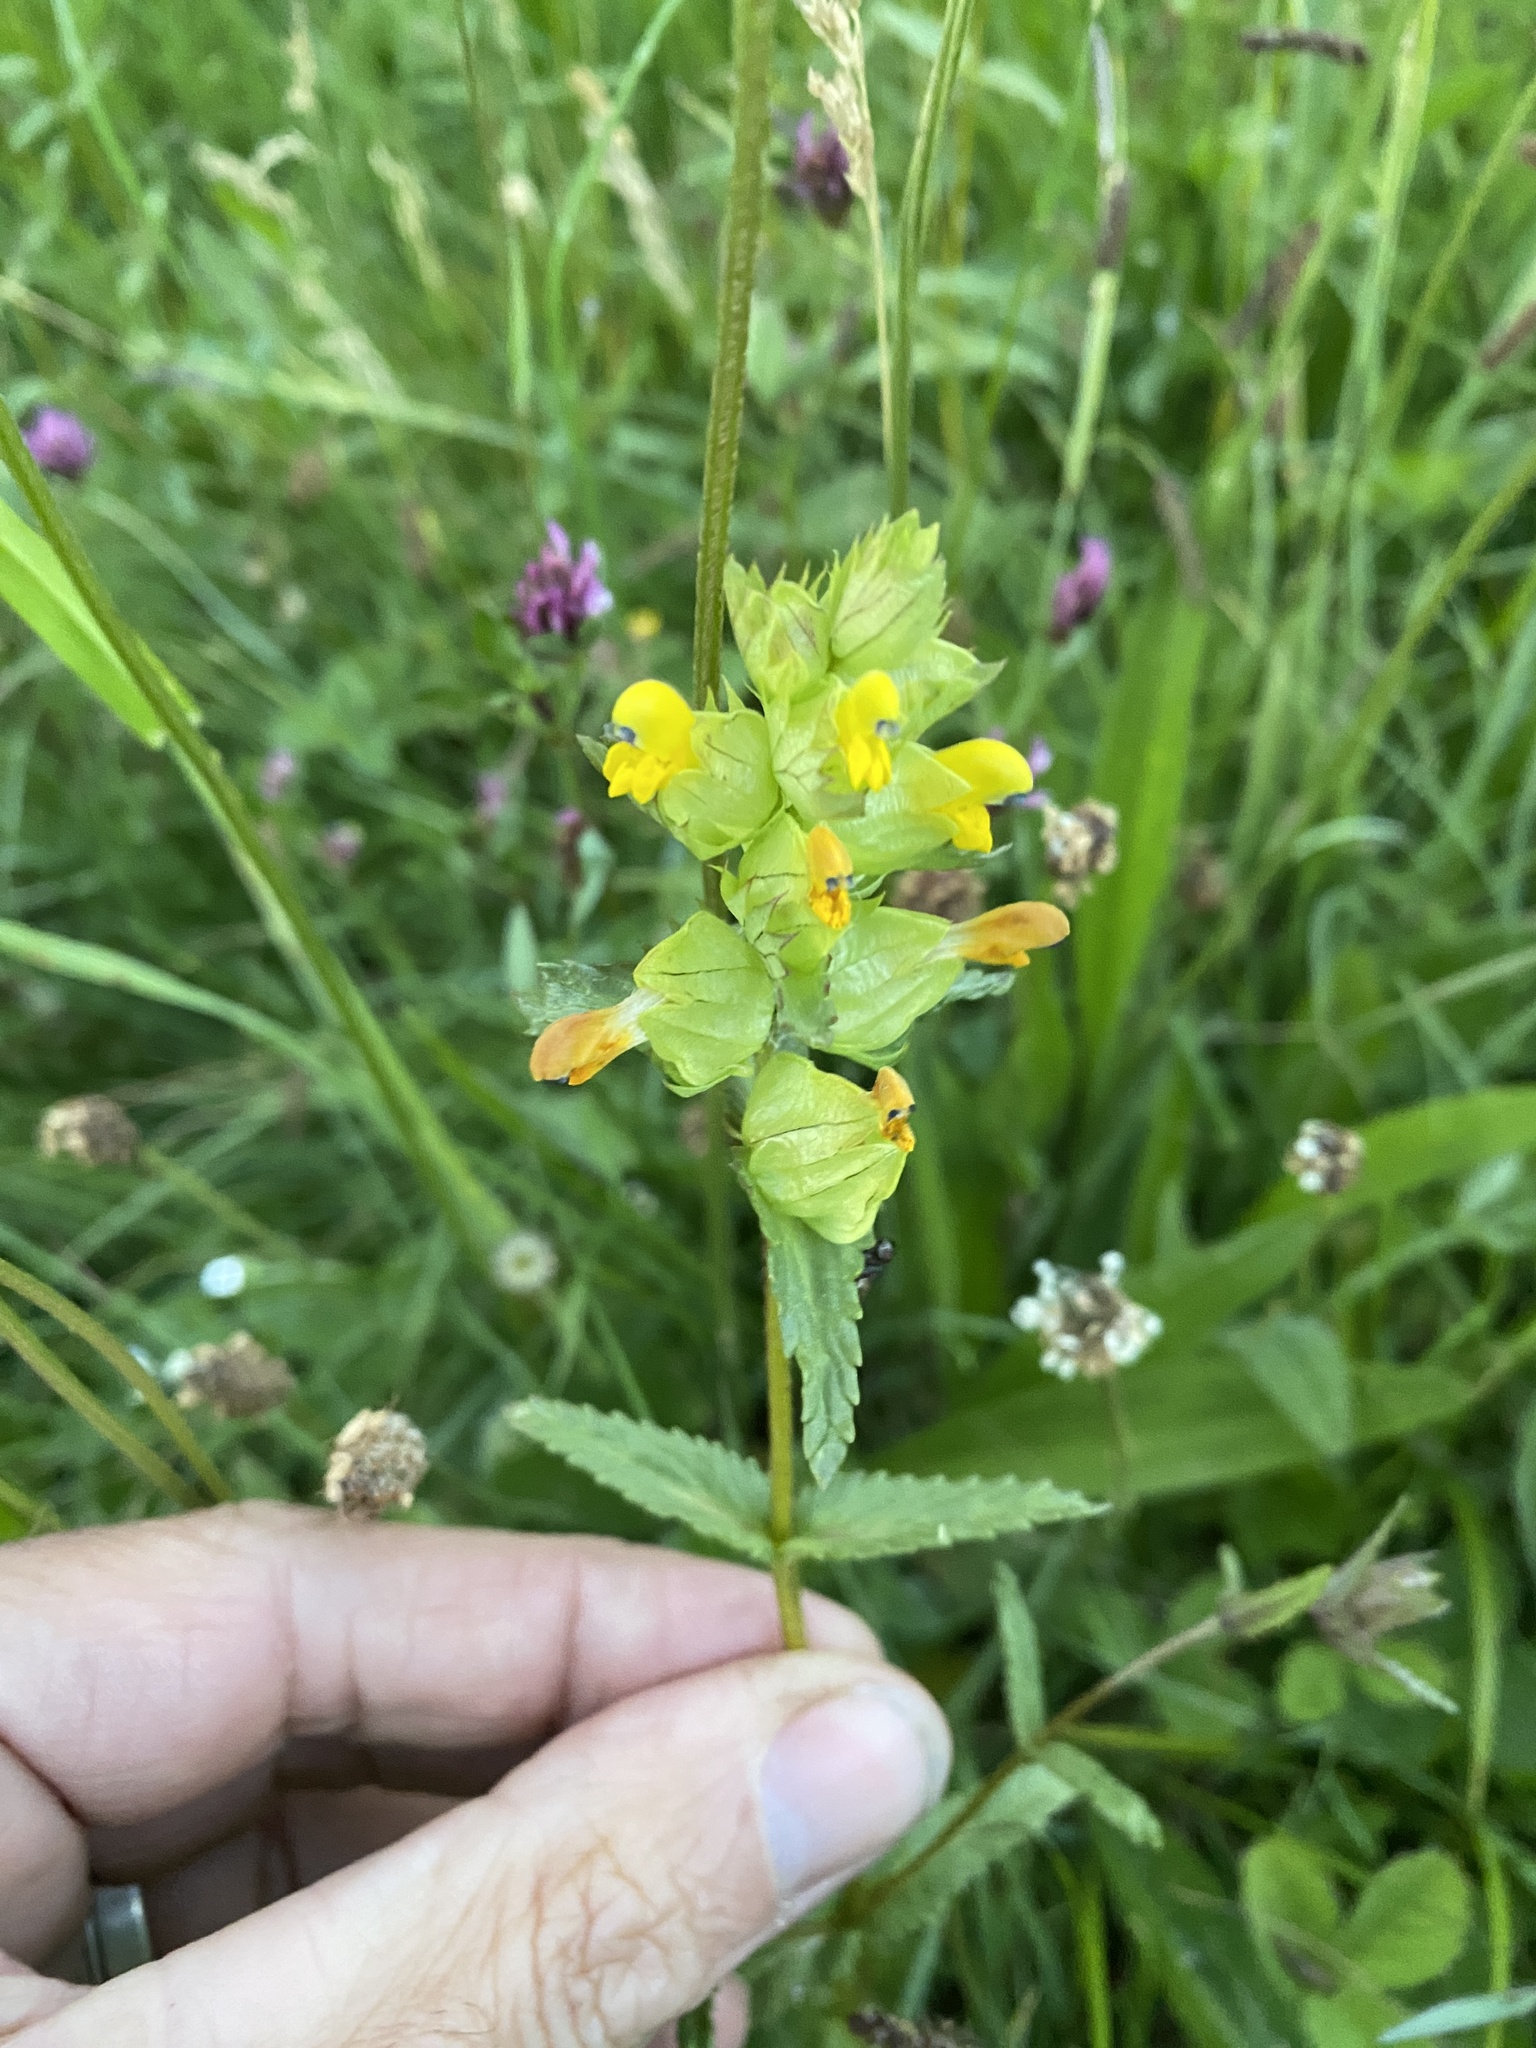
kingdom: Plantae
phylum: Tracheophyta
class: Magnoliopsida
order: Lamiales
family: Orobanchaceae
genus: Rhinanthus
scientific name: Rhinanthus minor
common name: Yellow-rattle
